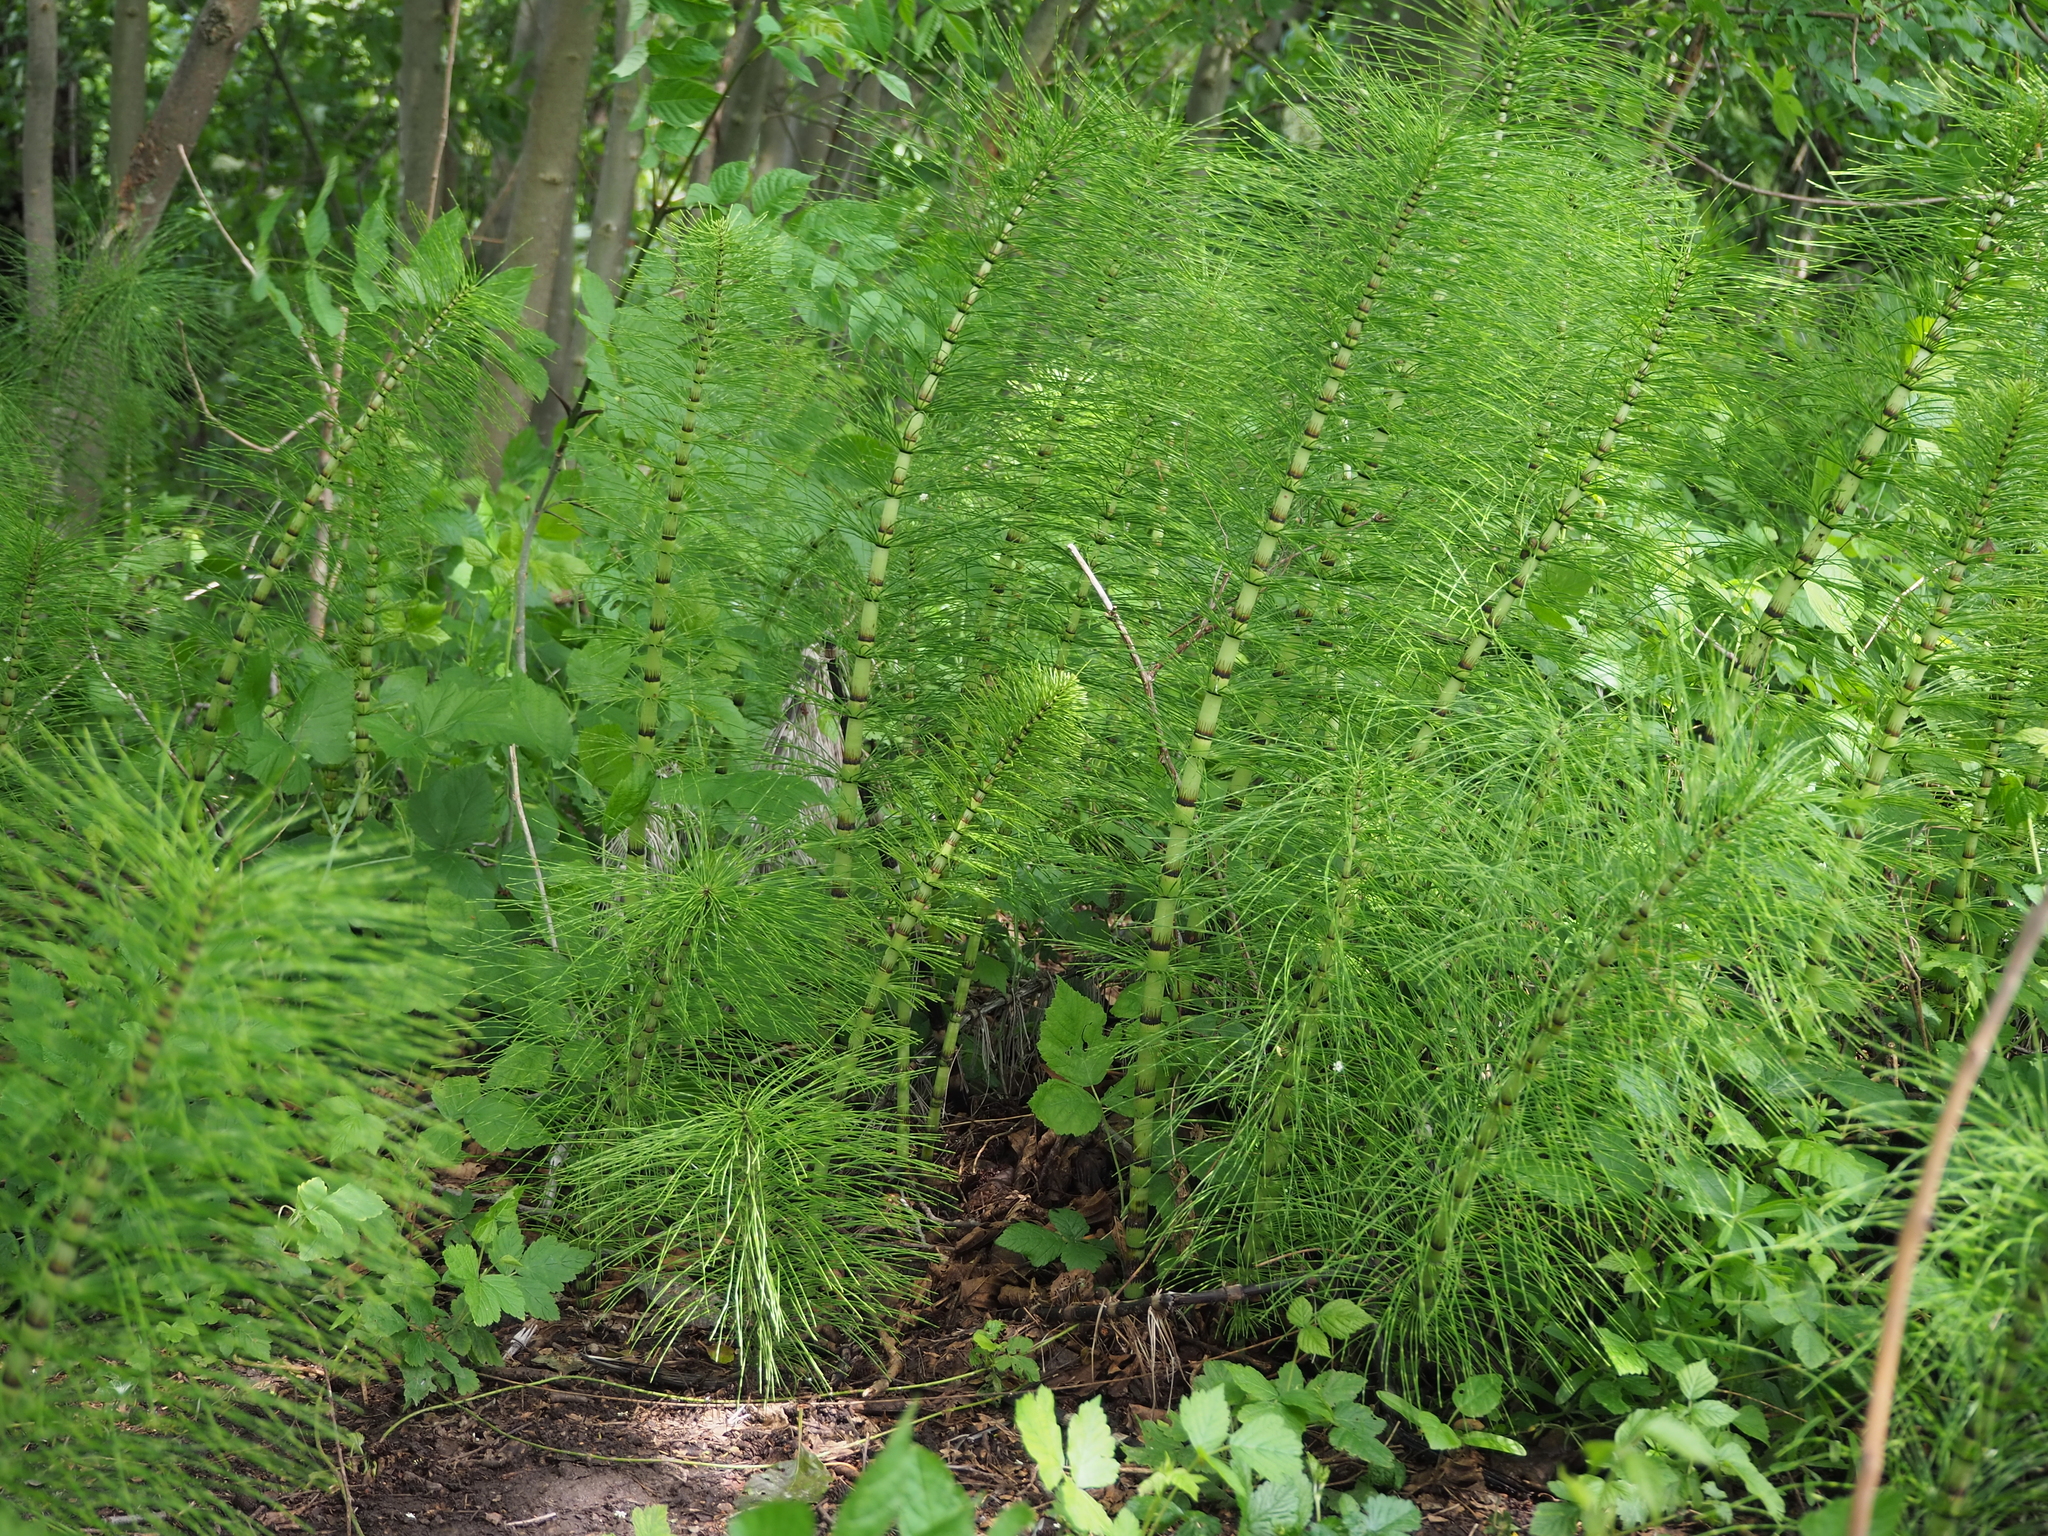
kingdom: Plantae
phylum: Tracheophyta
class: Polypodiopsida
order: Equisetales
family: Equisetaceae
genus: Equisetum
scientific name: Equisetum telmateia
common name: Great horsetail
